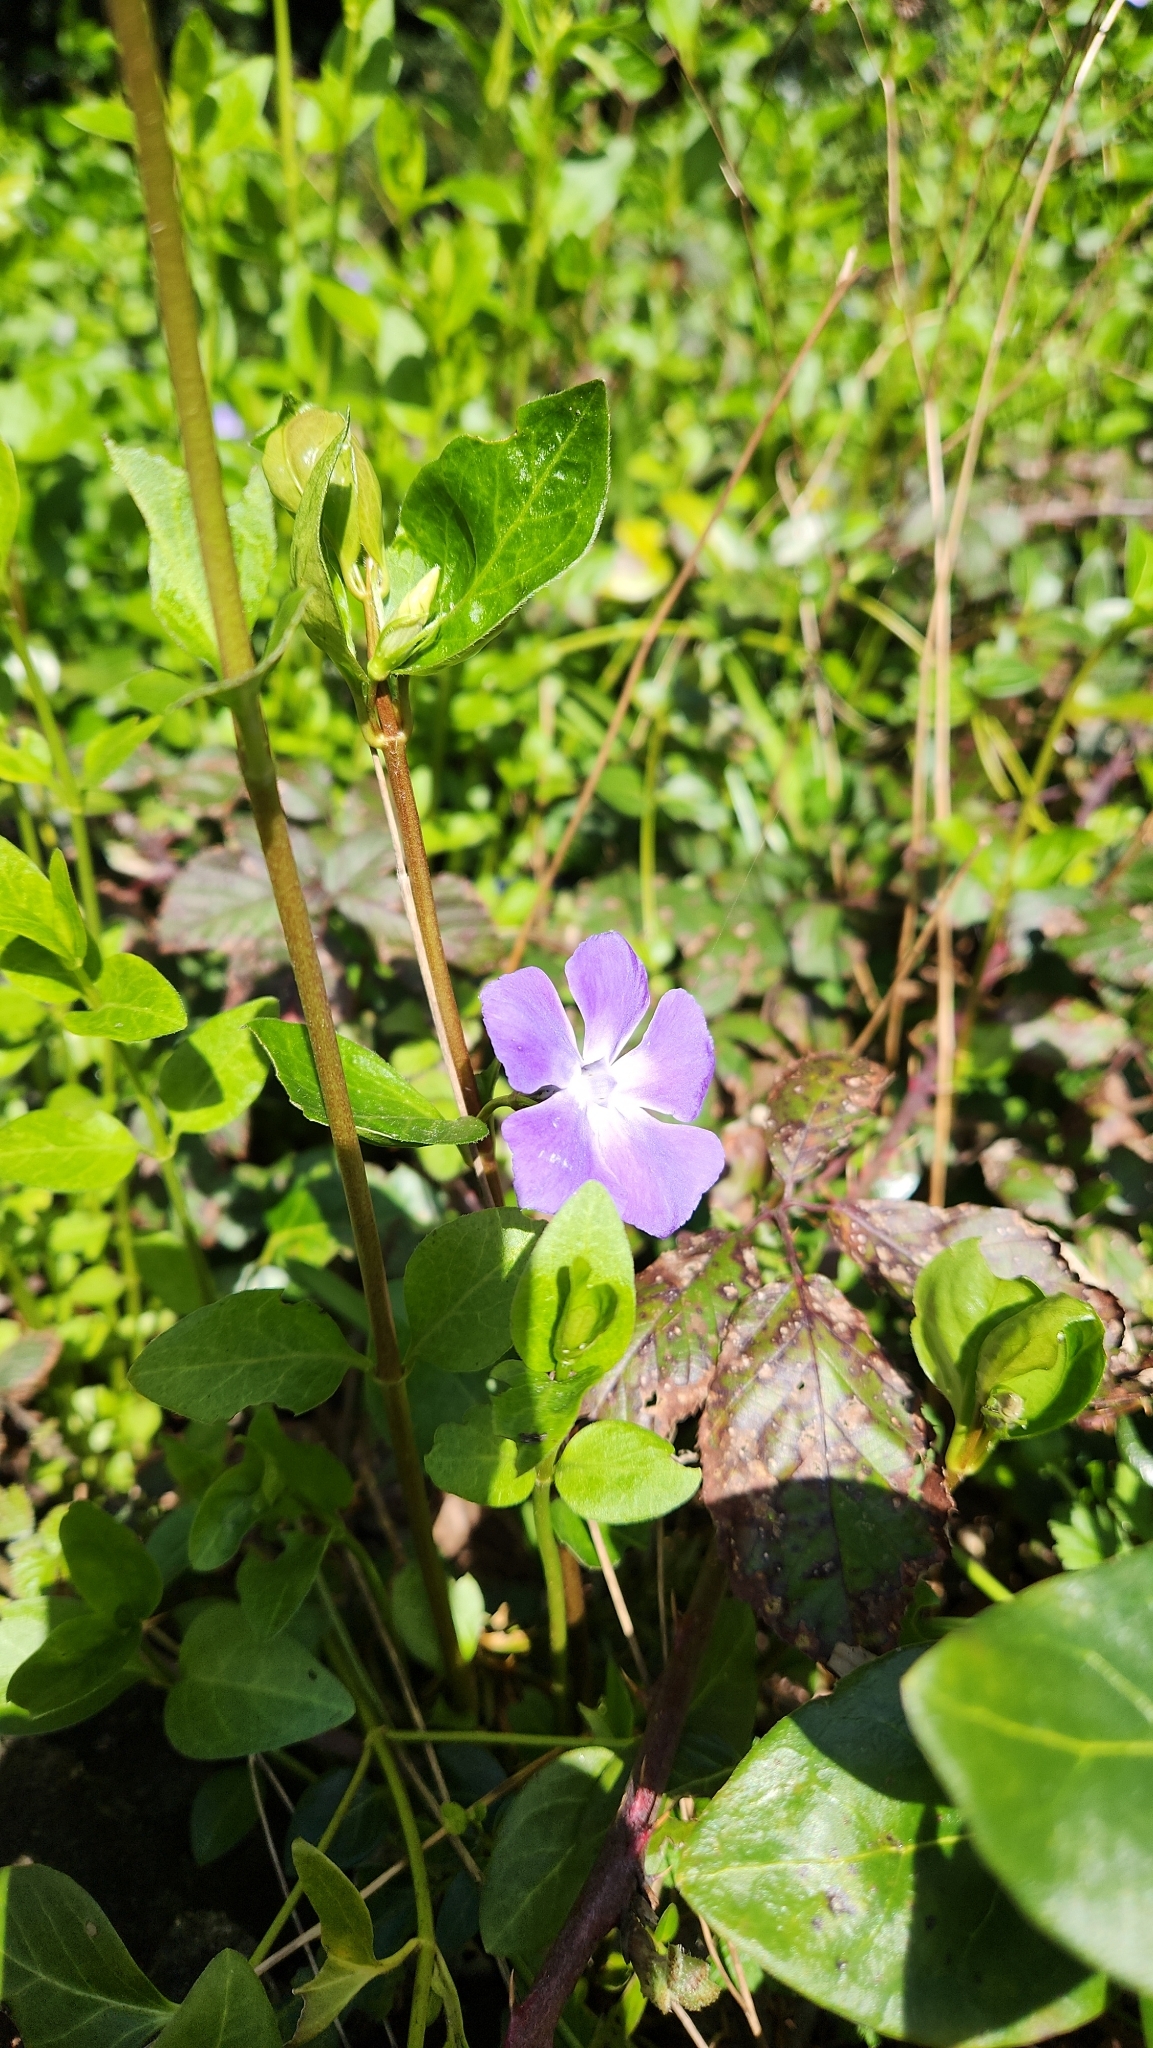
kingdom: Plantae
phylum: Tracheophyta
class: Magnoliopsida
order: Gentianales
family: Apocynaceae
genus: Vinca
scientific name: Vinca major
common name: Greater periwinkle
